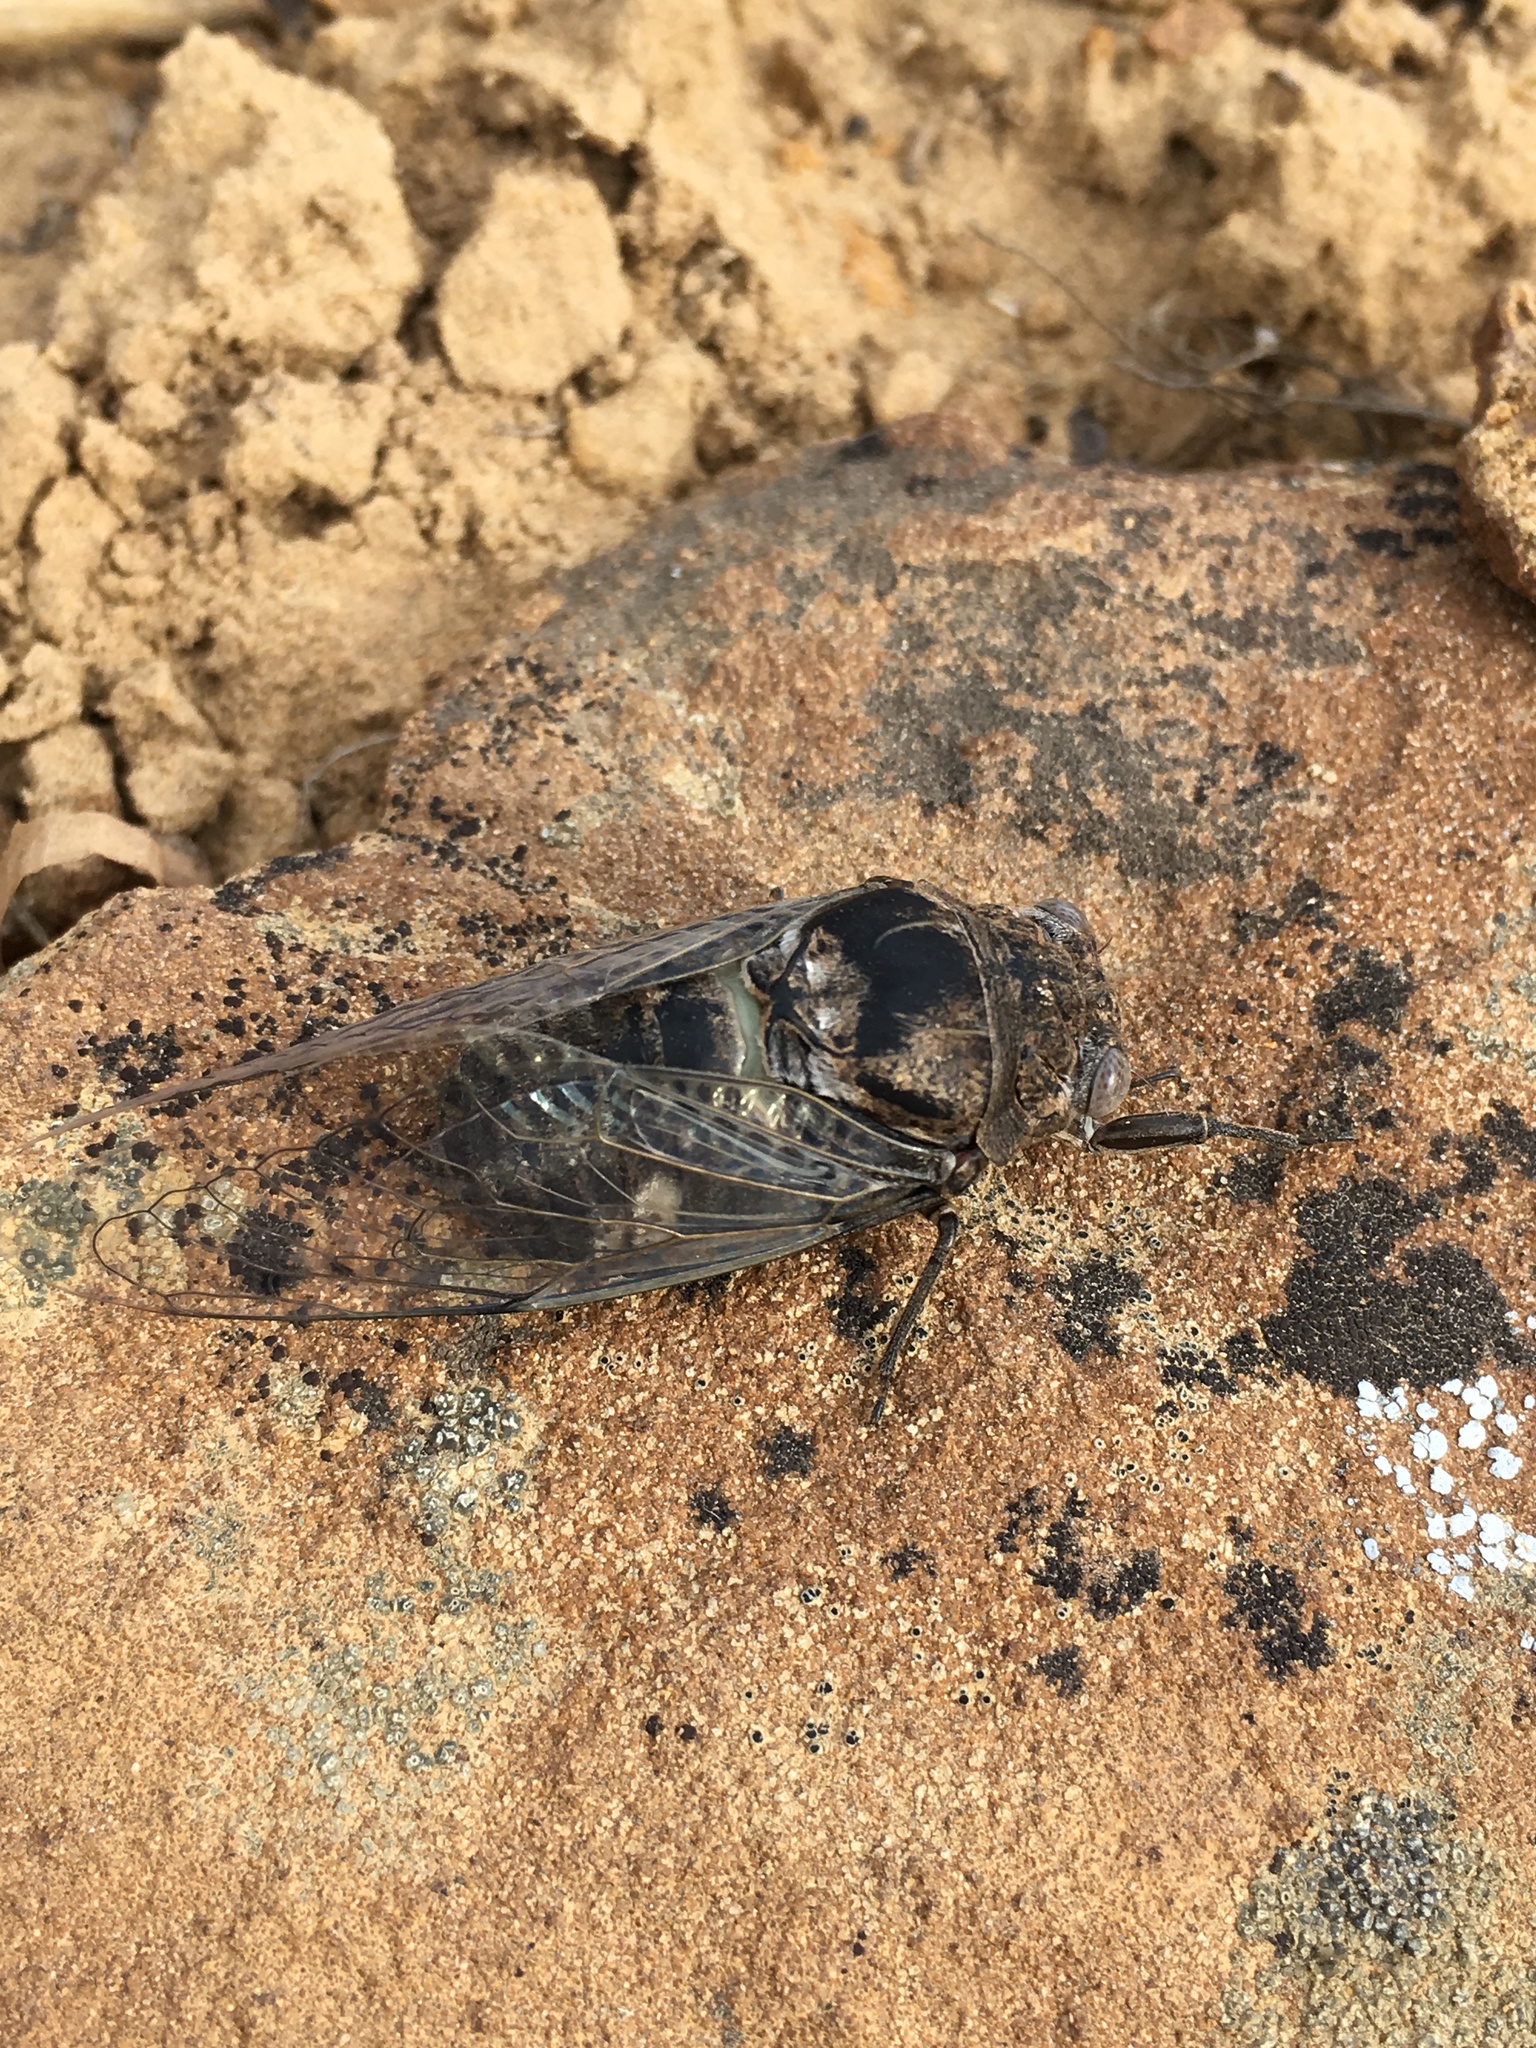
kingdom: Animalia
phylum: Arthropoda
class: Insecta
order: Hemiptera
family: Cicadidae
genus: Cacama
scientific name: Cacama valvata
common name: Cactus dodger
